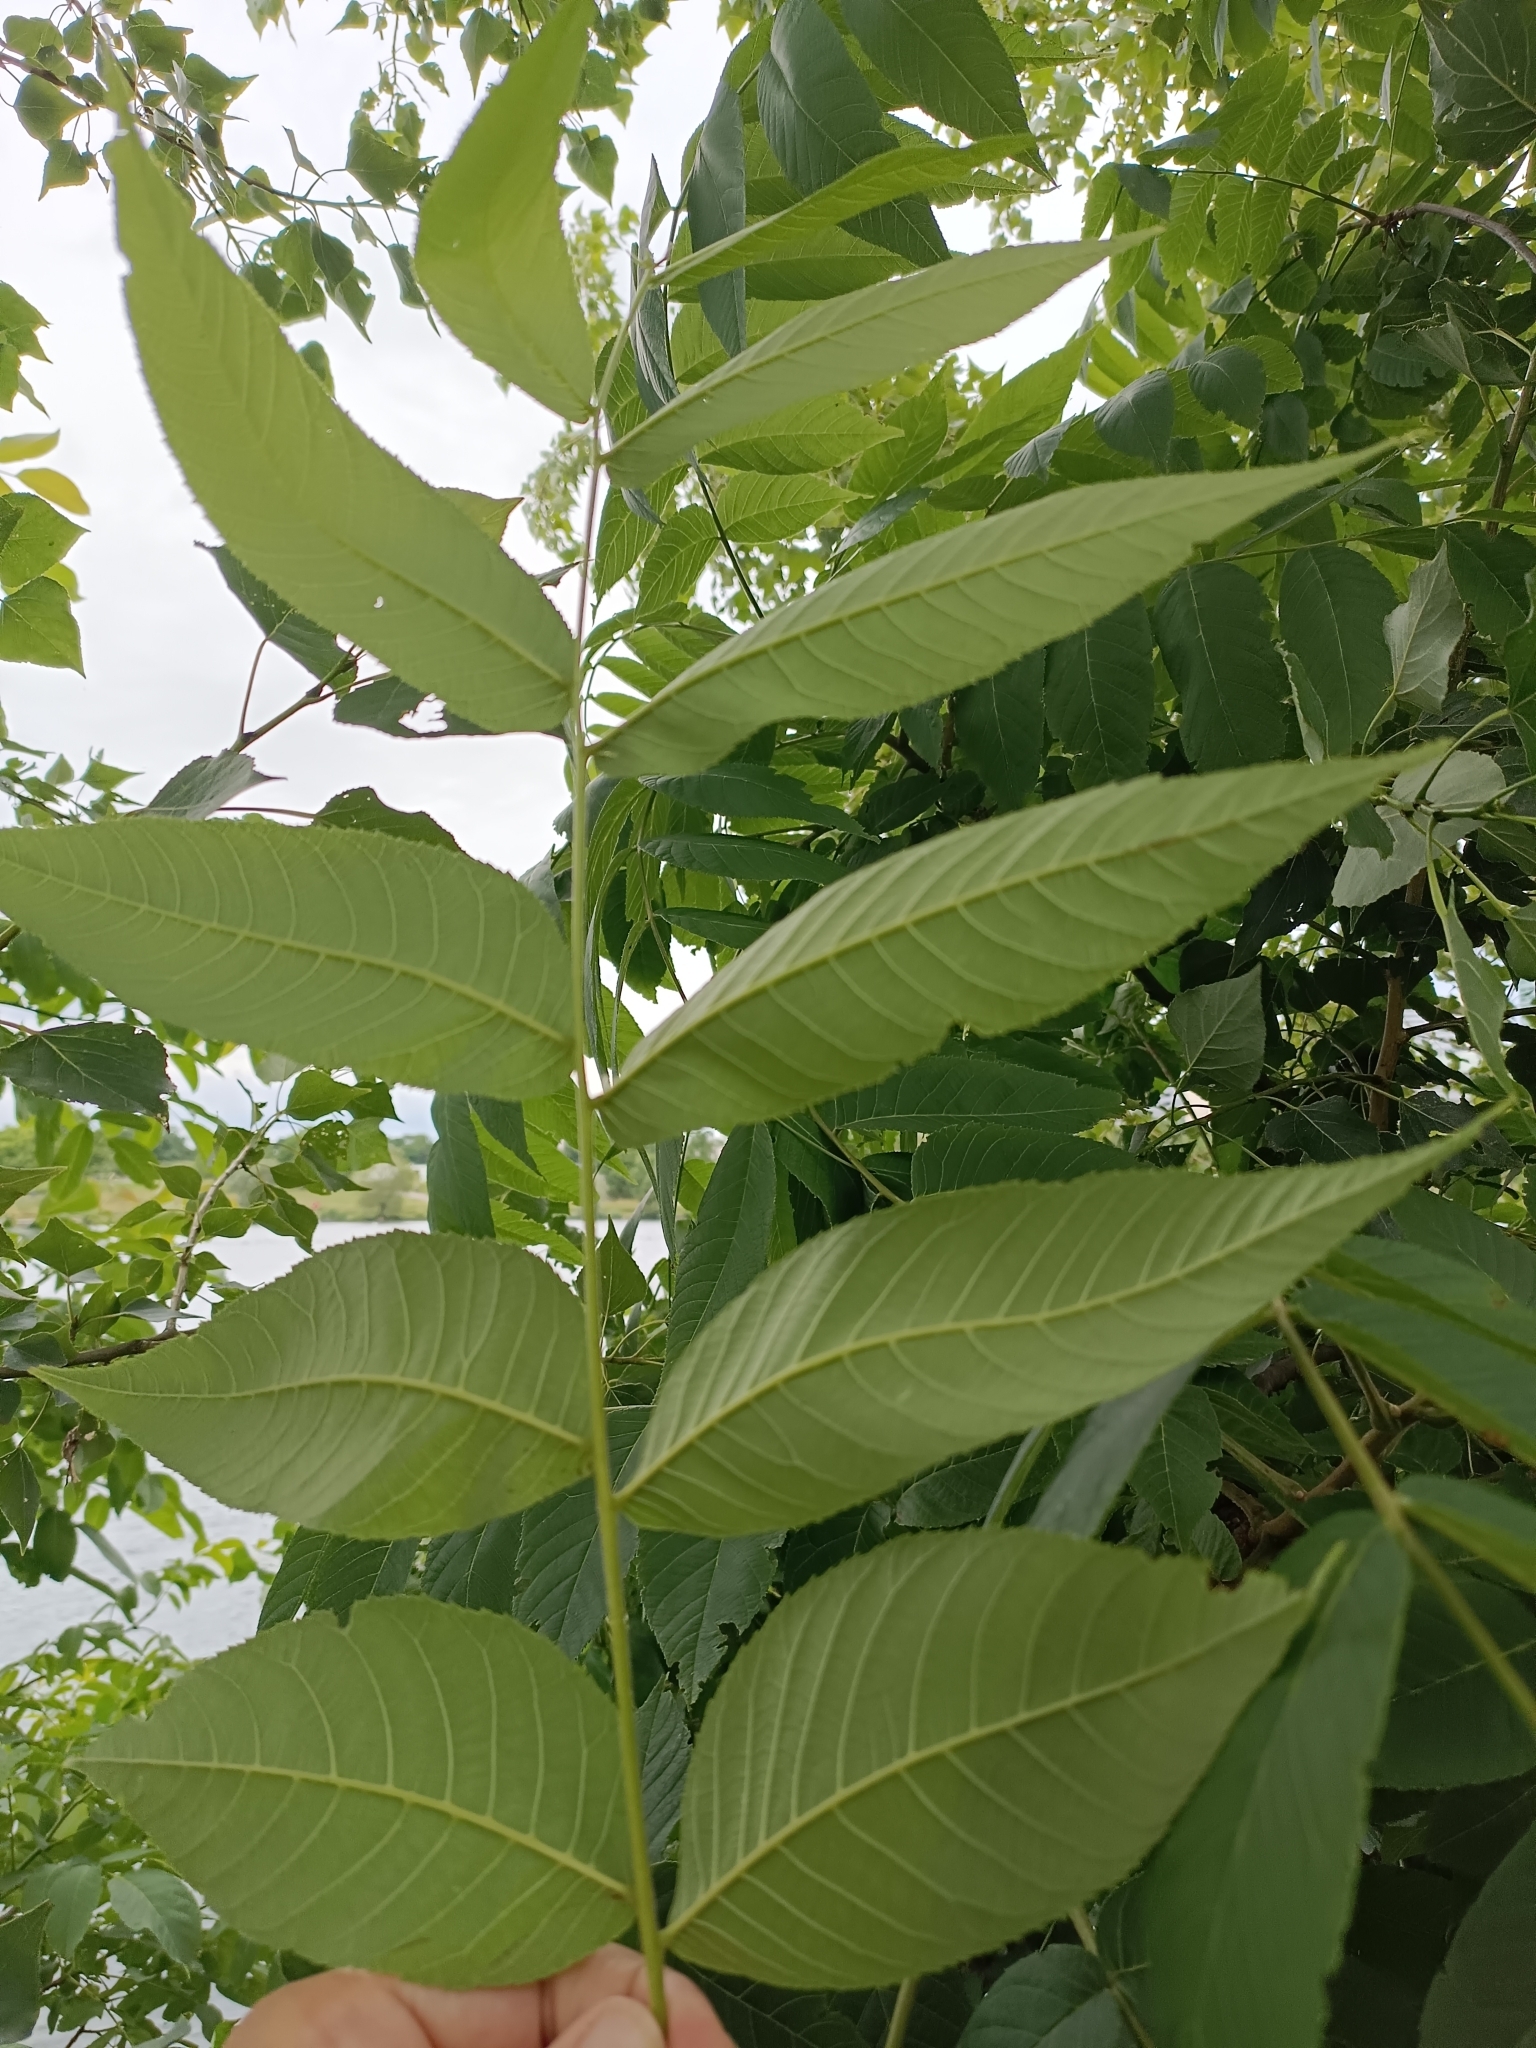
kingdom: Plantae
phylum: Tracheophyta
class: Magnoliopsida
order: Fagales
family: Juglandaceae
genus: Juglans
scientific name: Juglans nigra
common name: Black walnut
